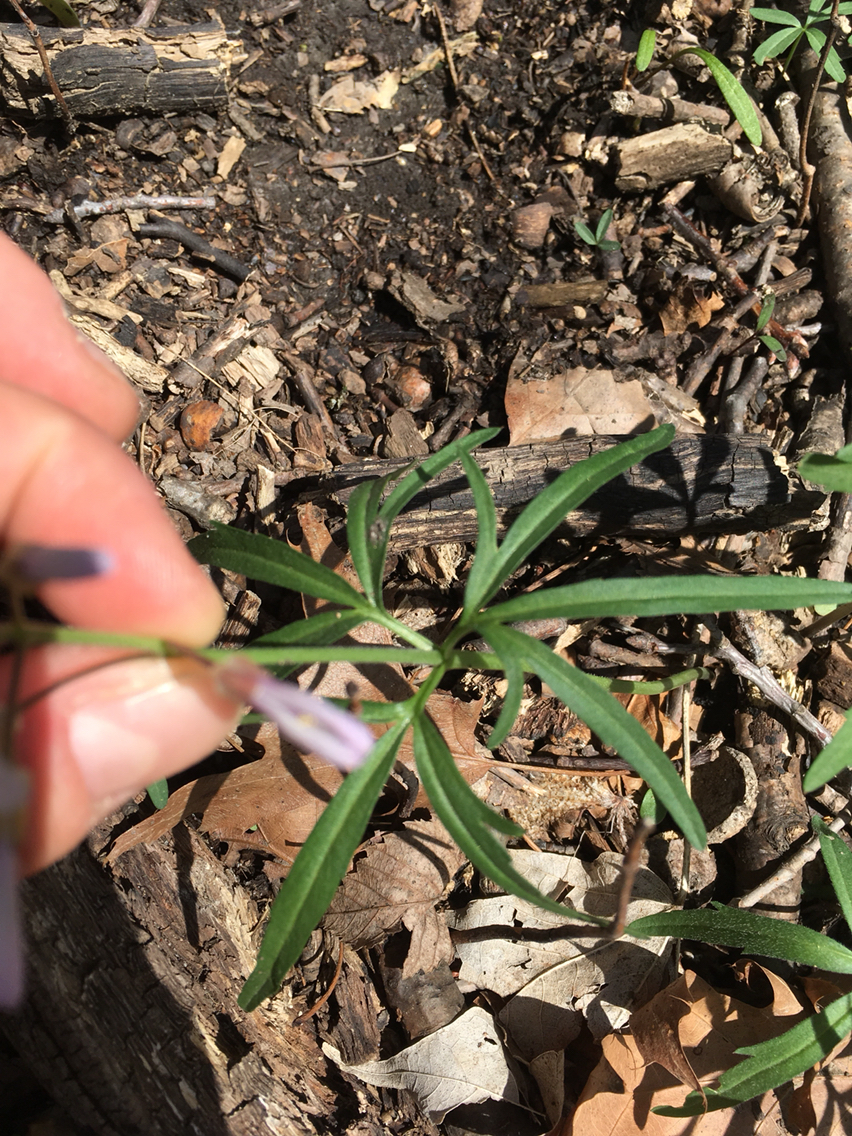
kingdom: Plantae
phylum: Tracheophyta
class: Magnoliopsida
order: Brassicales
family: Brassicaceae
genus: Cardamine
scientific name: Cardamine concatenata
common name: Cut-leaf toothcup
